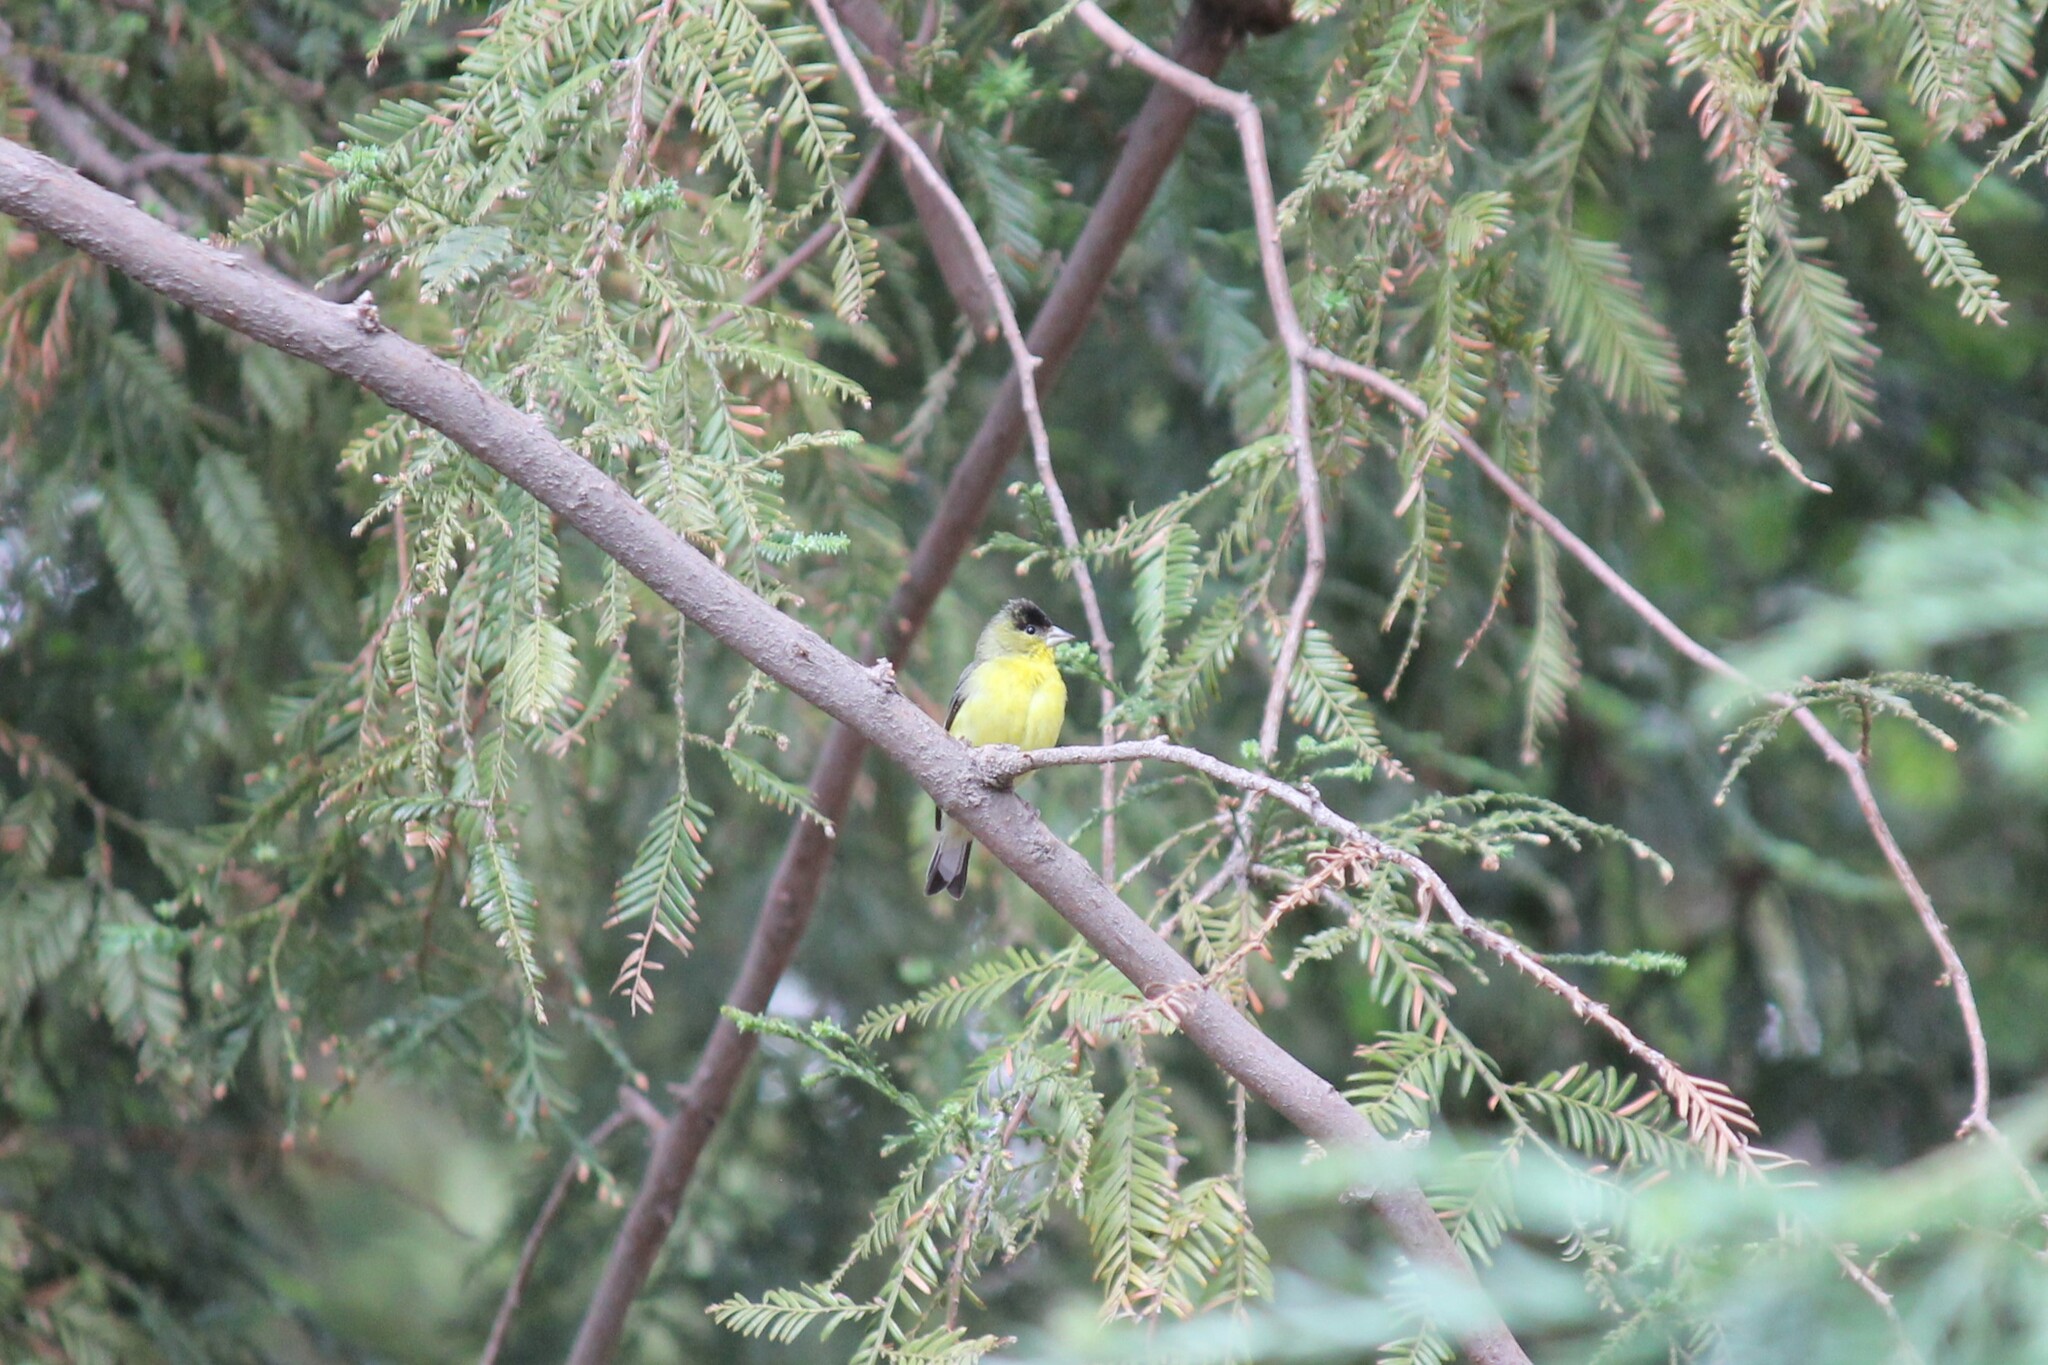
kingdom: Animalia
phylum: Chordata
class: Aves
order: Passeriformes
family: Fringillidae
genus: Spinus
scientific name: Spinus psaltria
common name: Lesser goldfinch
